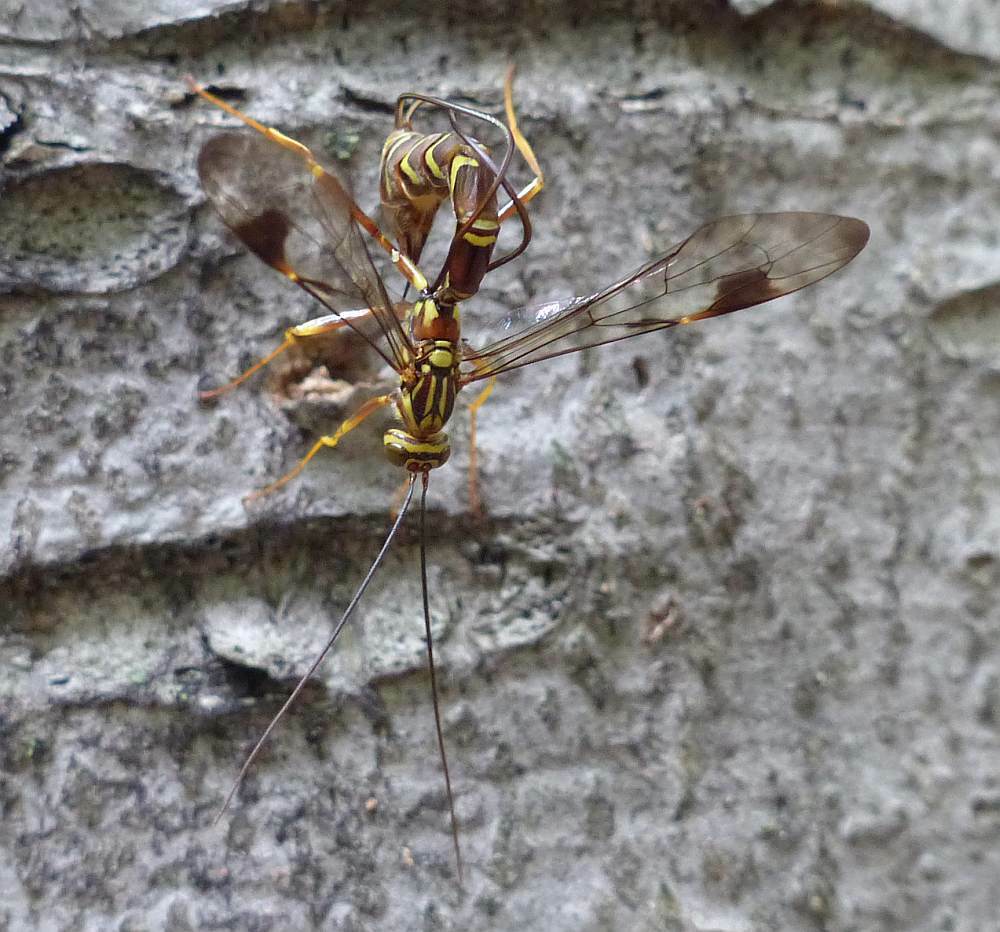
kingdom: Animalia
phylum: Arthropoda
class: Insecta
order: Hymenoptera
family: Ichneumonidae
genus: Megarhyssa
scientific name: Megarhyssa macrura
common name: Long-tailed giant ichneumonid wasp
